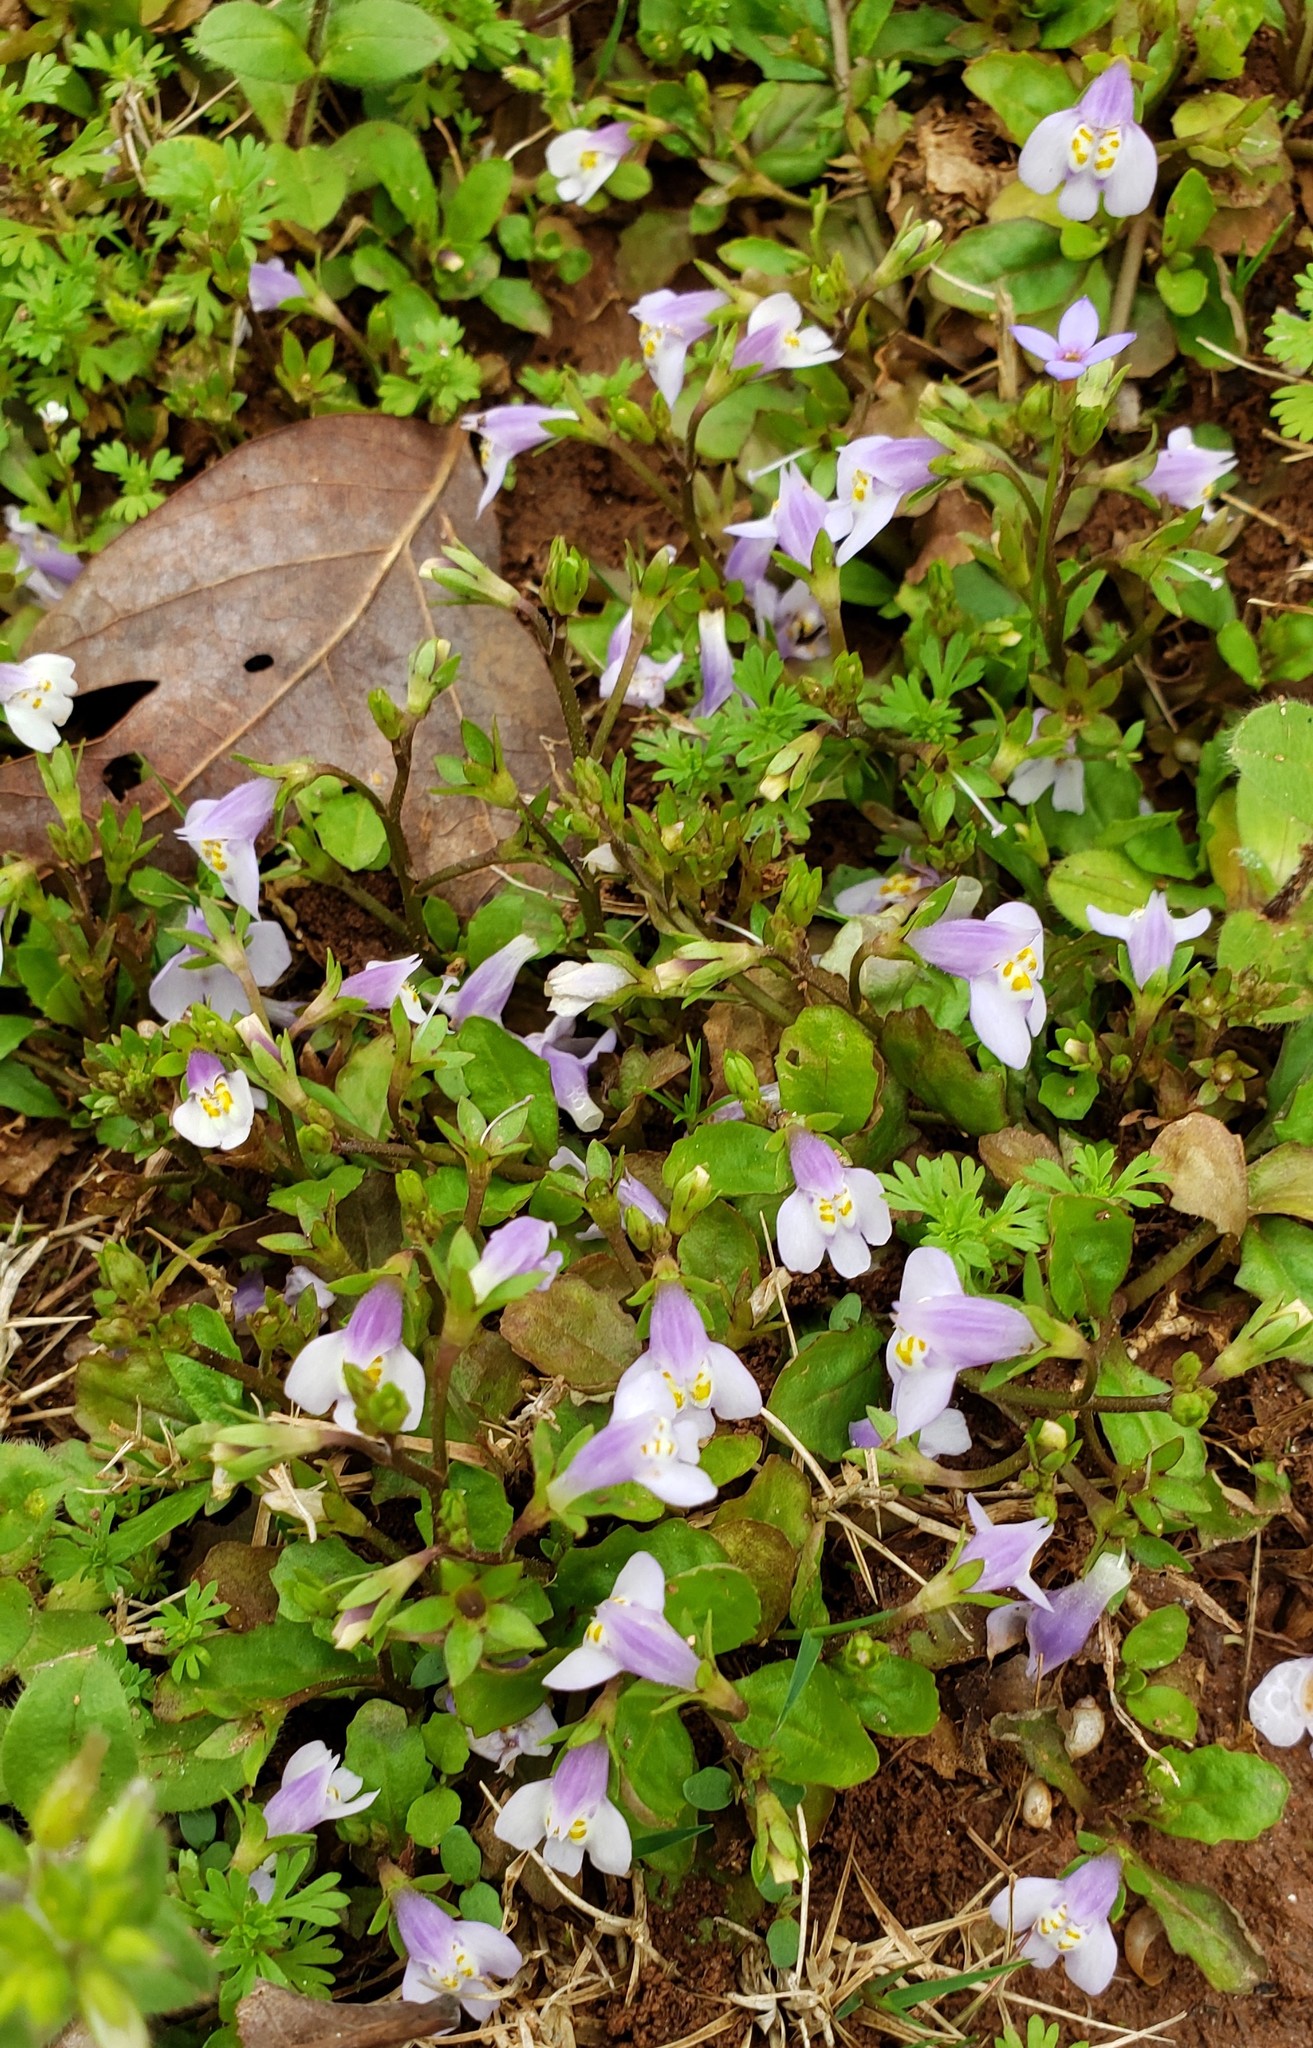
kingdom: Plantae
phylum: Tracheophyta
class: Magnoliopsida
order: Lamiales
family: Mazaceae
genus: Mazus
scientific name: Mazus pumilus
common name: Japanese mazus
